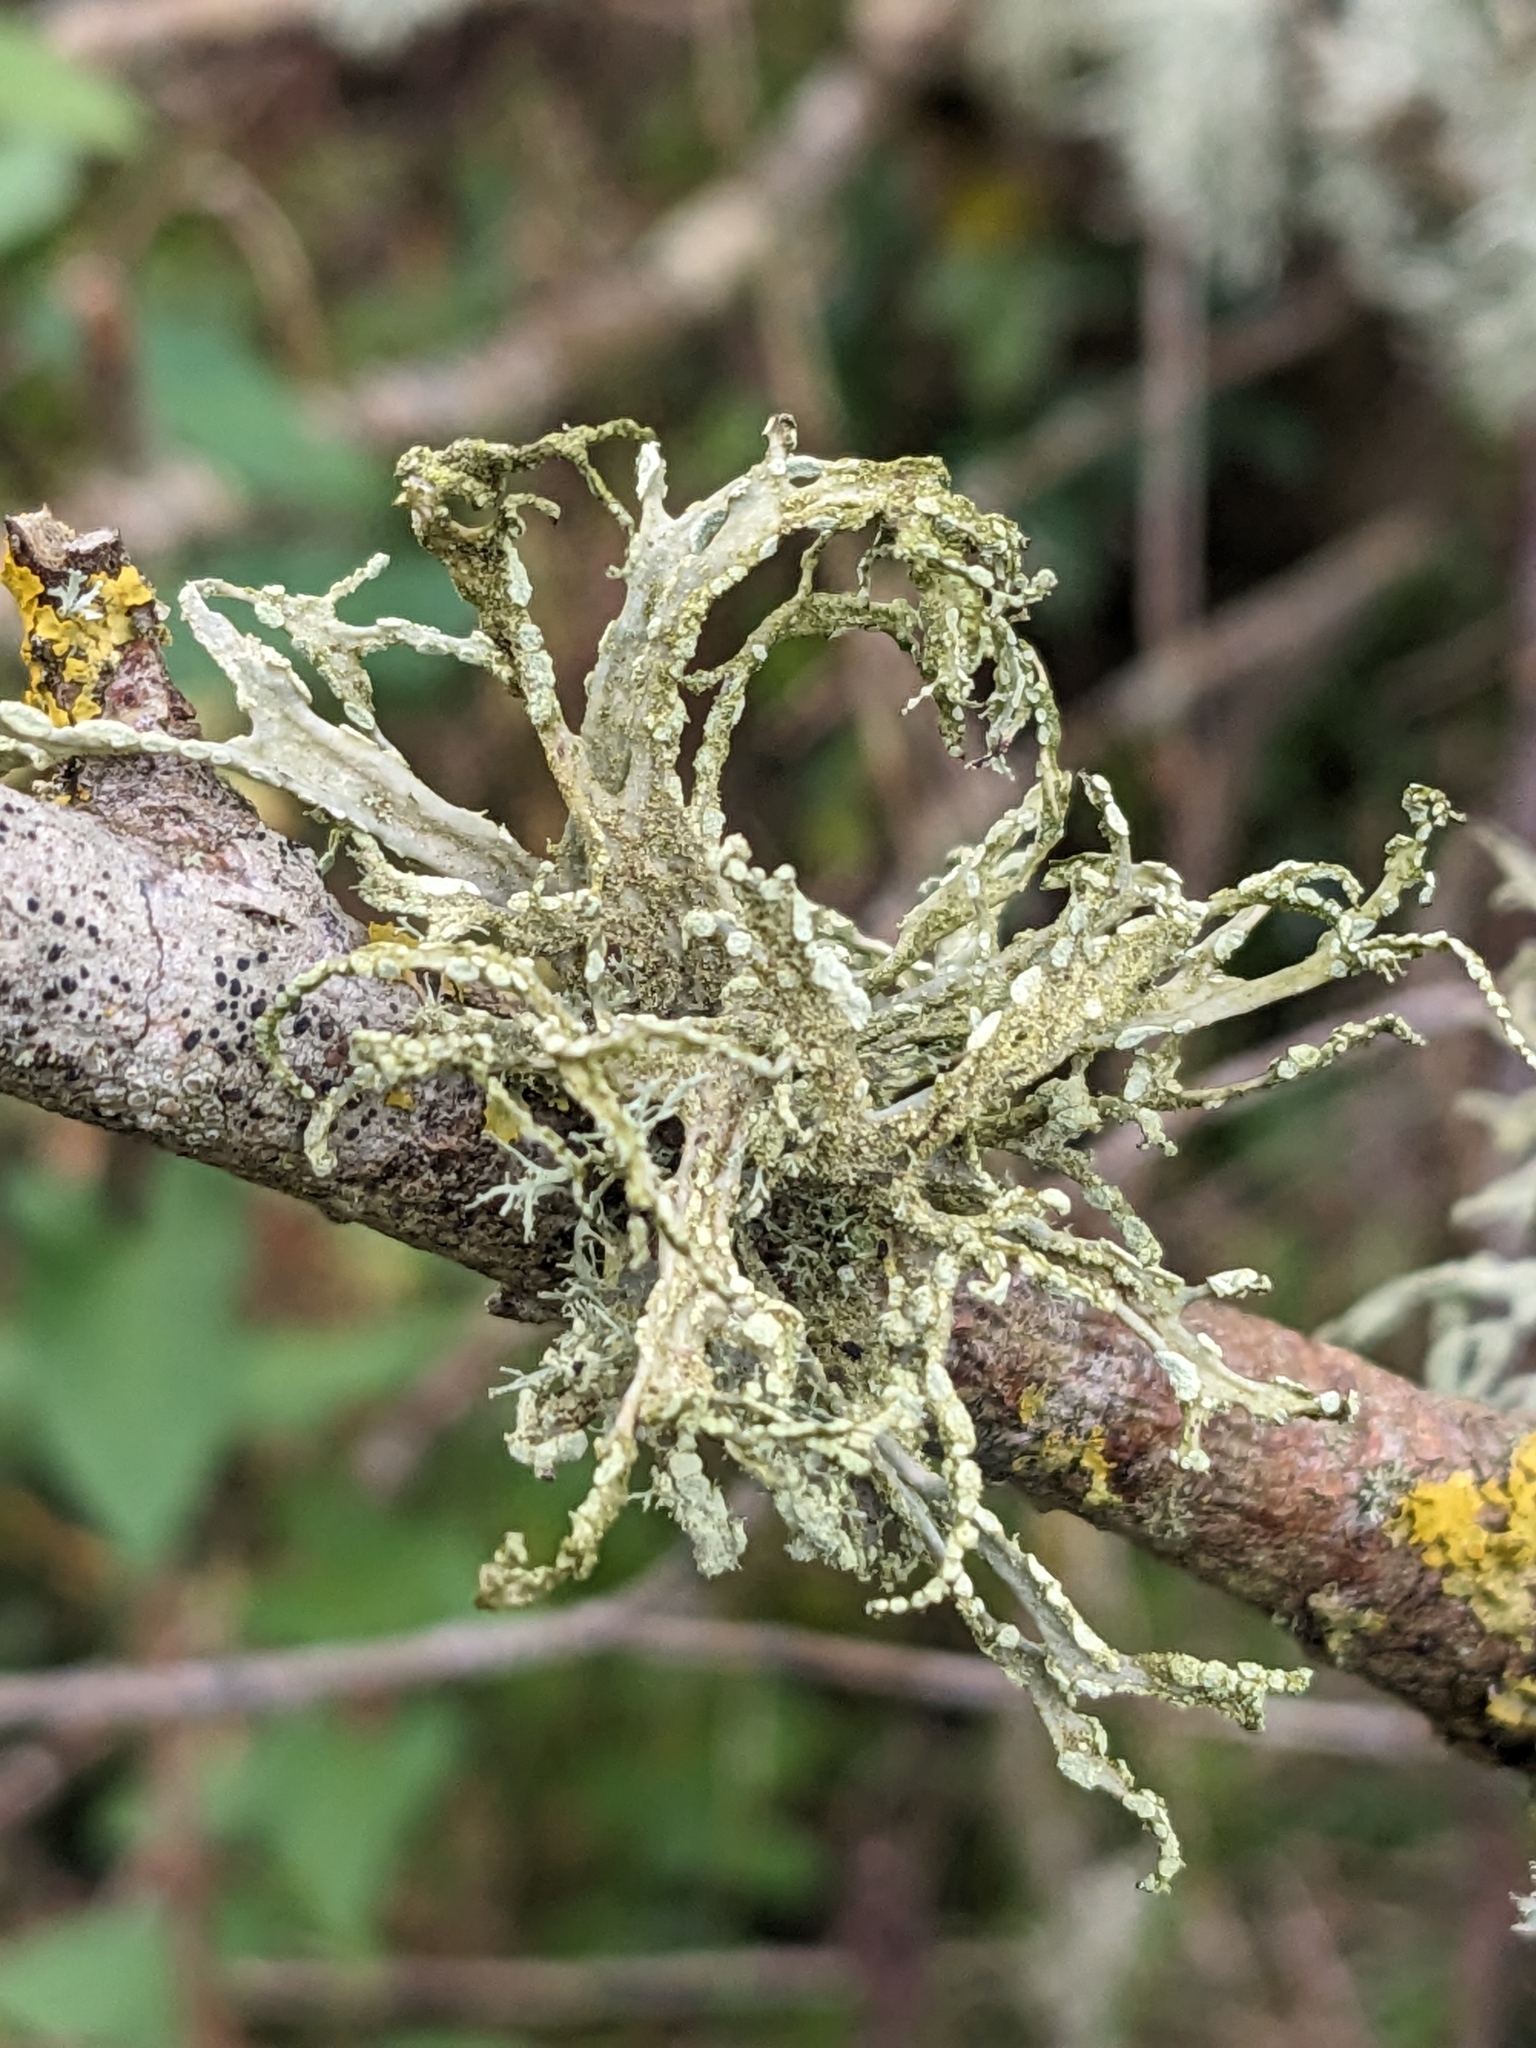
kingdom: Fungi
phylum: Ascomycota
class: Lecanoromycetes
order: Lecanorales
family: Ramalinaceae
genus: Ramalina
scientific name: Ramalina farinacea
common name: Farinose cartilage lichen
